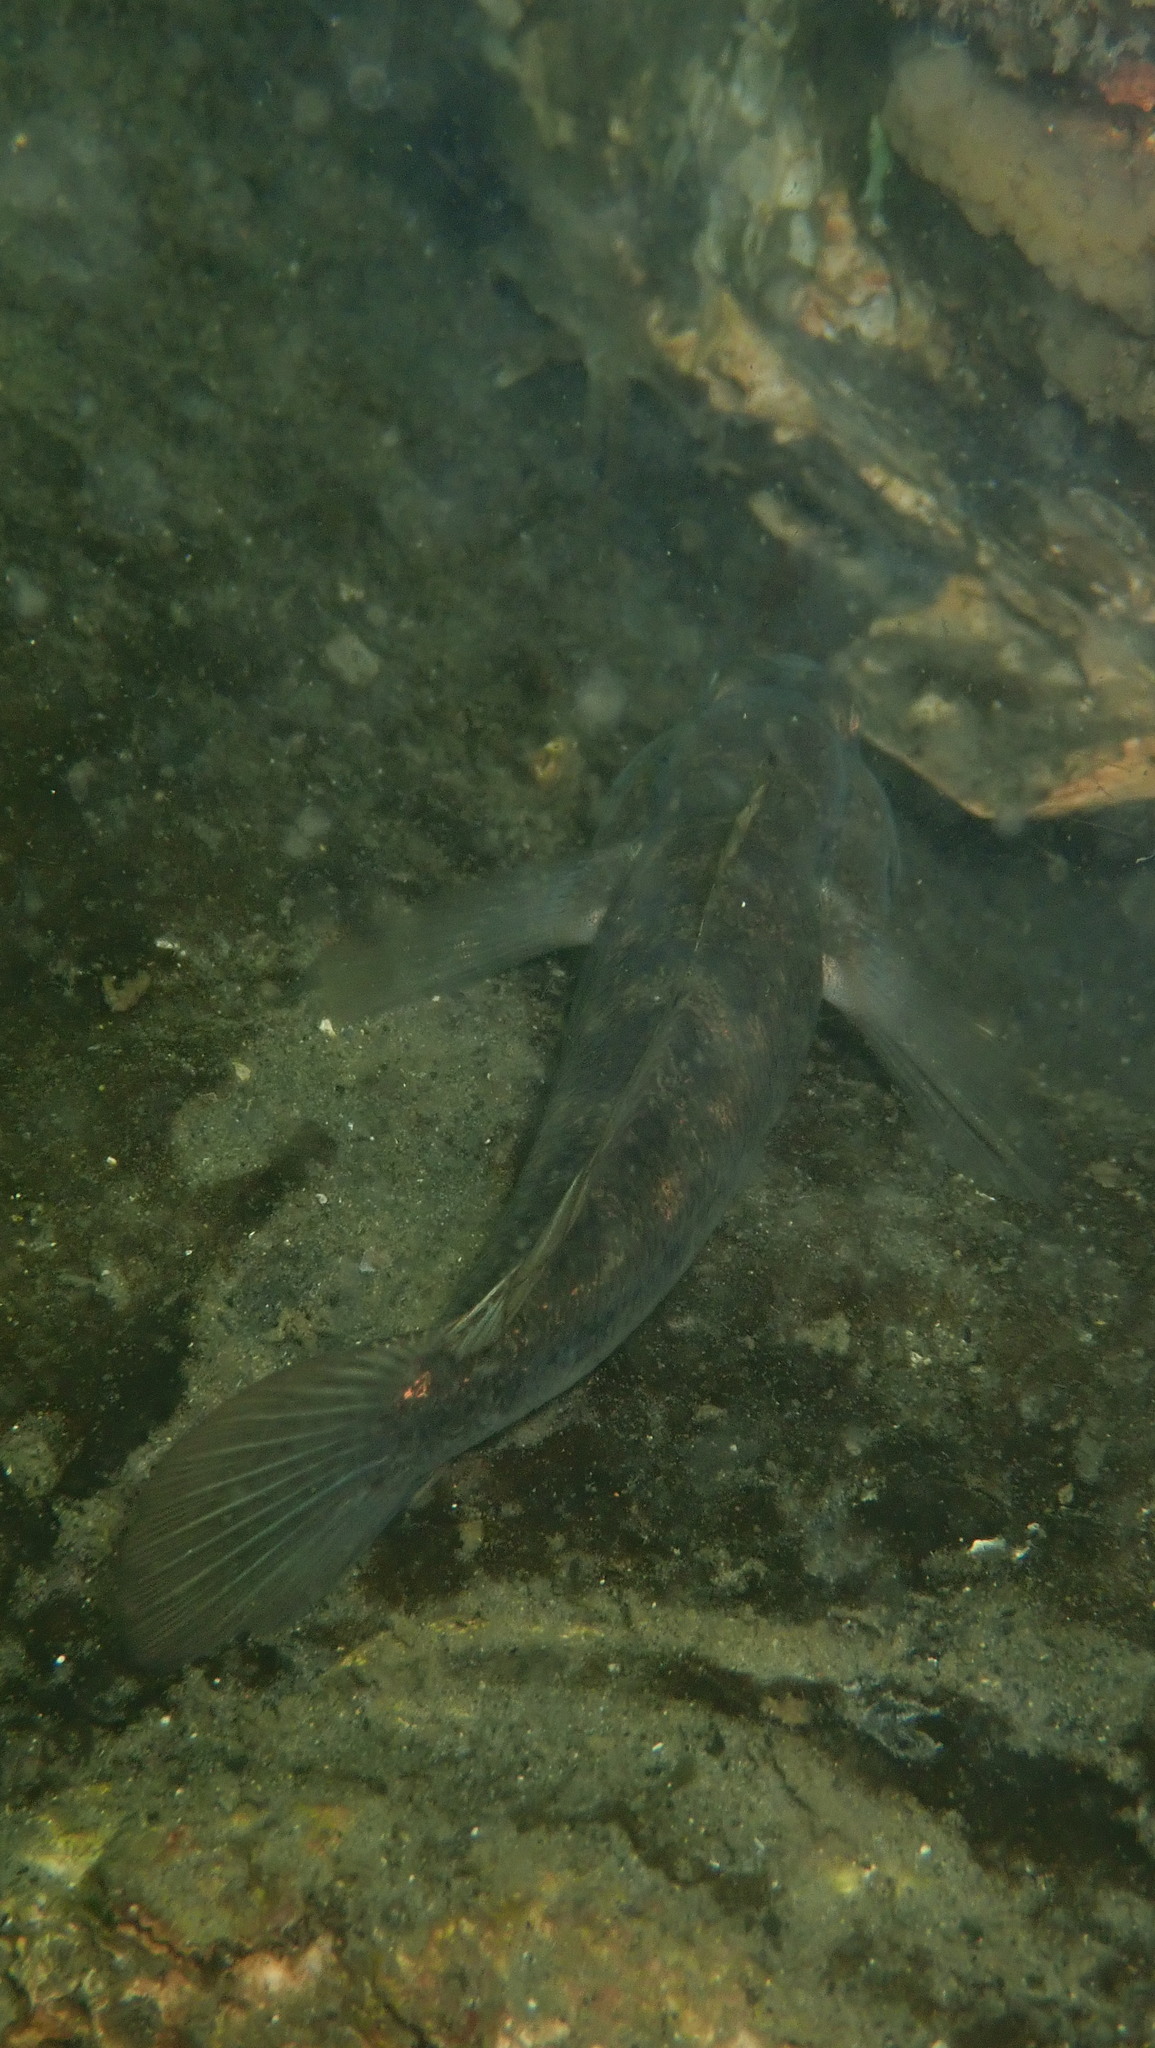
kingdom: Animalia
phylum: Chordata
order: Perciformes
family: Gobiidae
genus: Gobius
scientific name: Gobius niger
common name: Black goby
